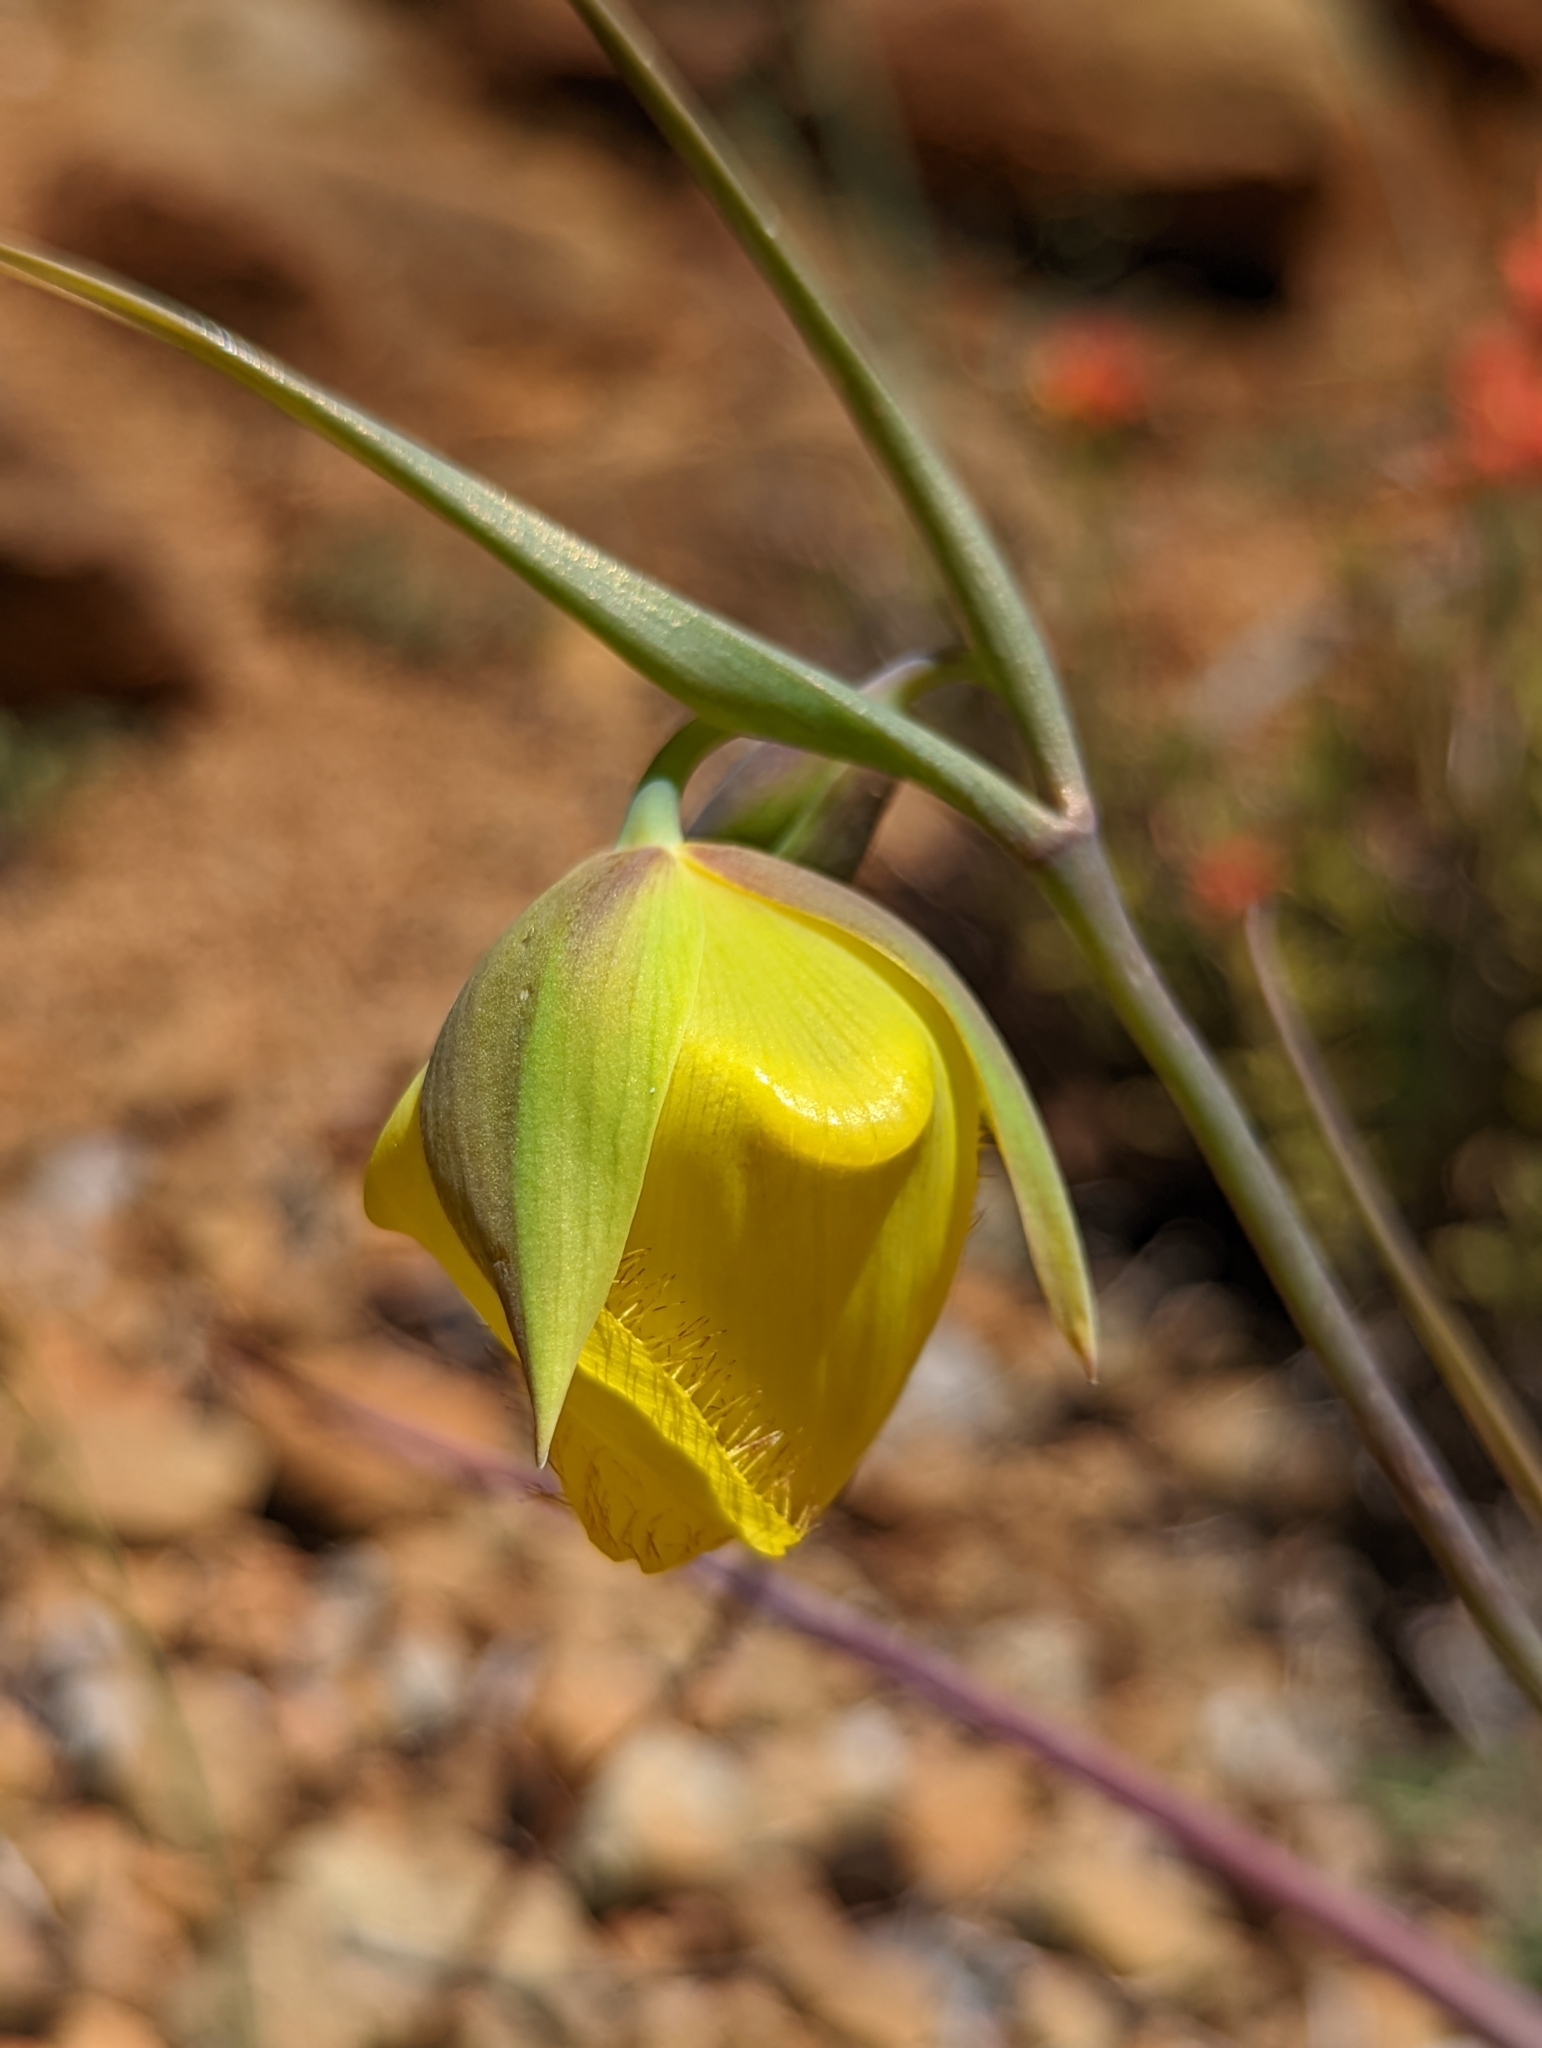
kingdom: Plantae
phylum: Tracheophyta
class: Liliopsida
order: Liliales
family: Liliaceae
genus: Calochortus
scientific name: Calochortus raichei
